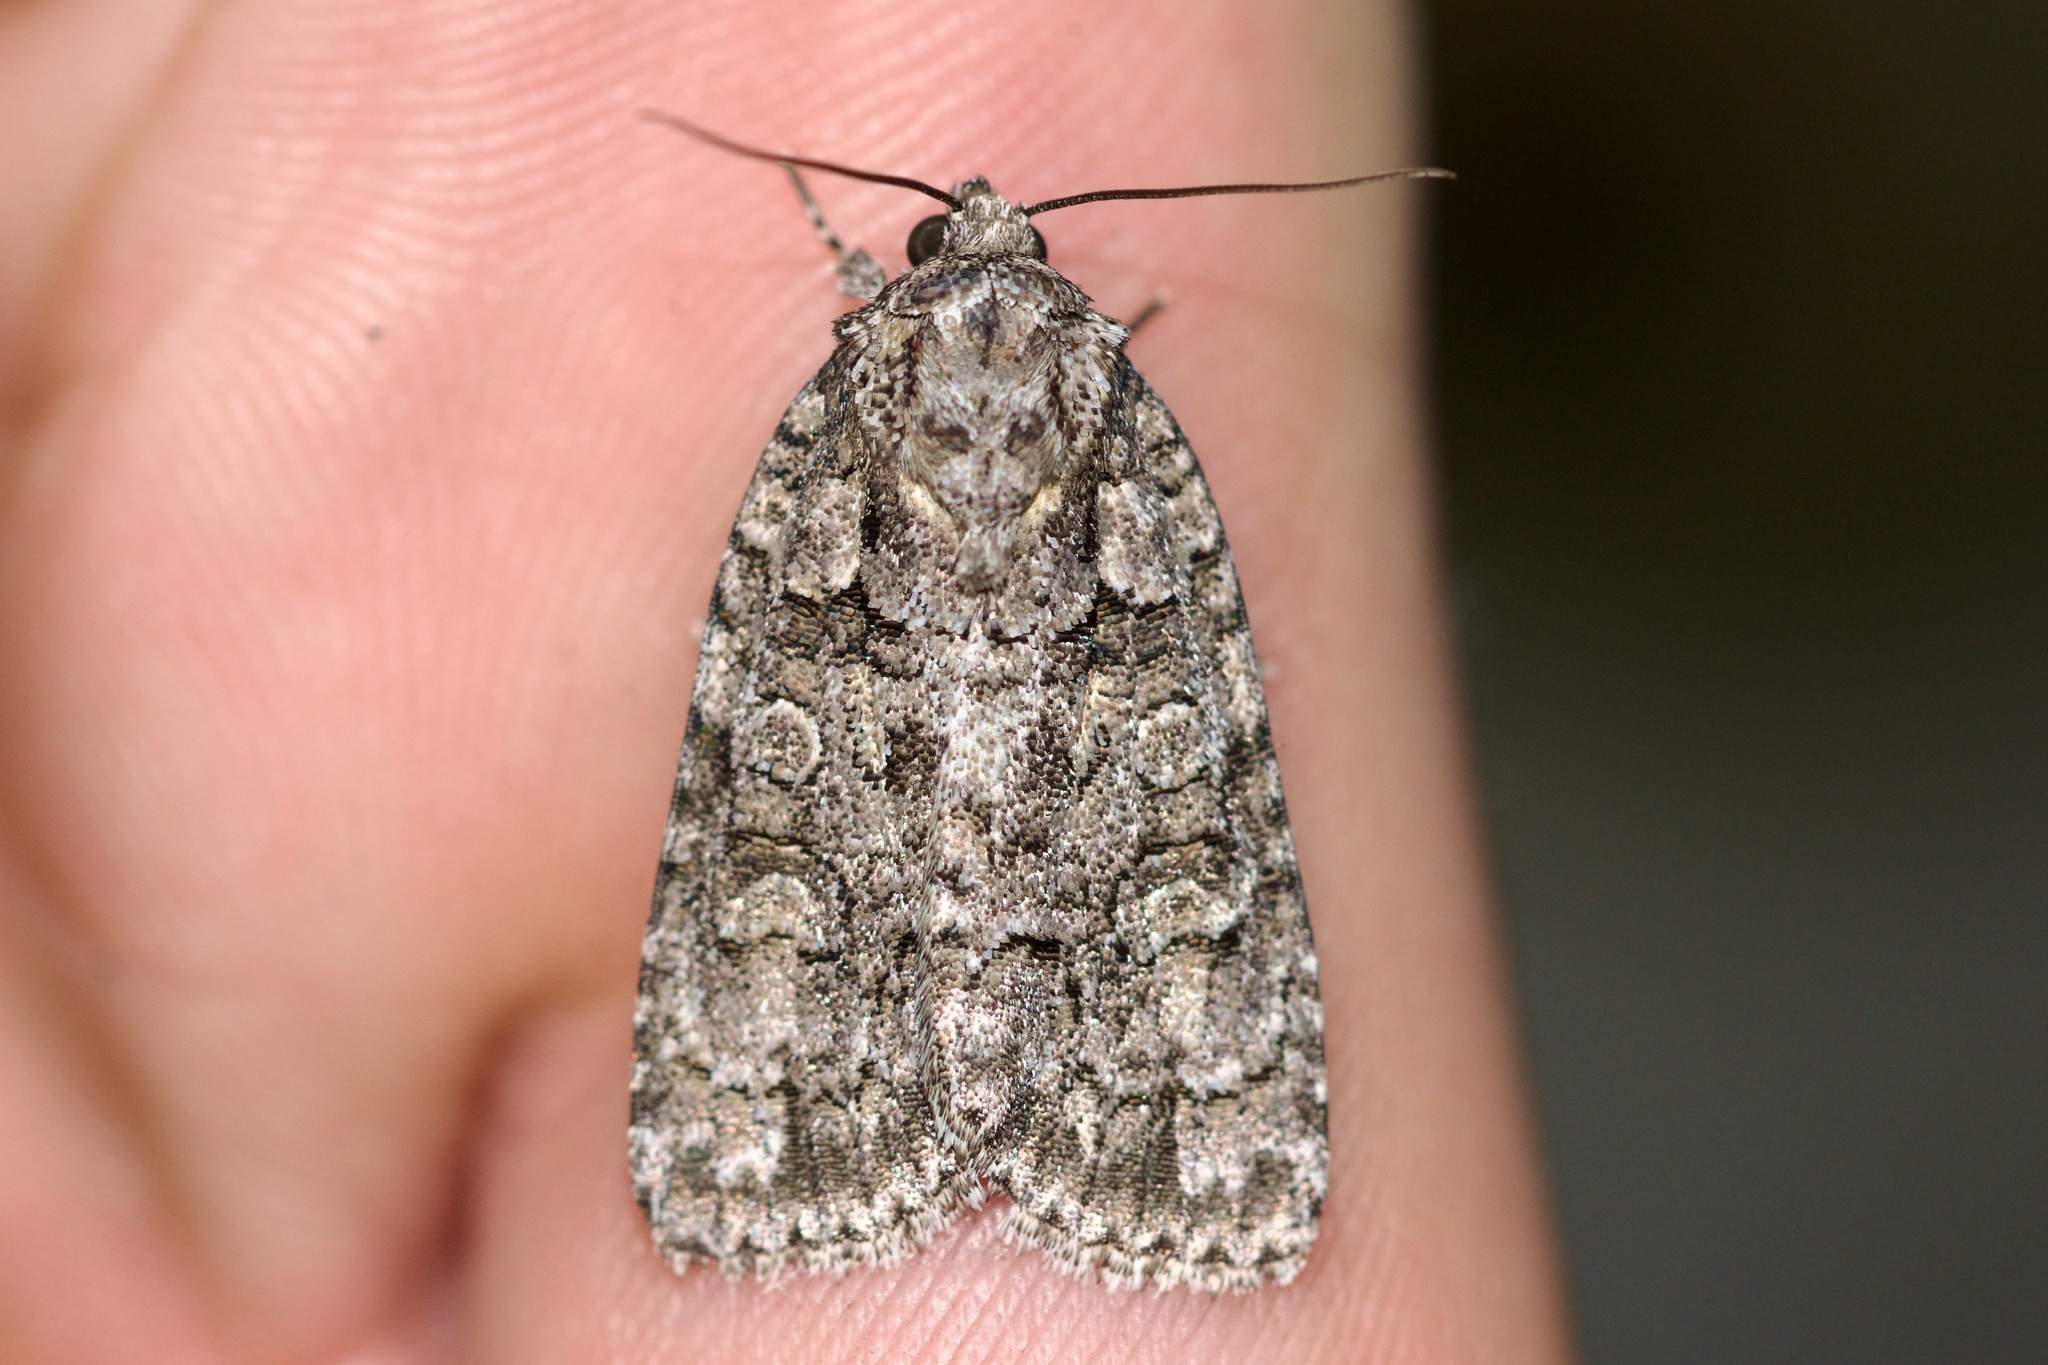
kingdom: Animalia
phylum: Arthropoda
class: Insecta
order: Lepidoptera
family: Noctuidae
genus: Acronicta
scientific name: Acronicta tristis
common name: Sad dagger
